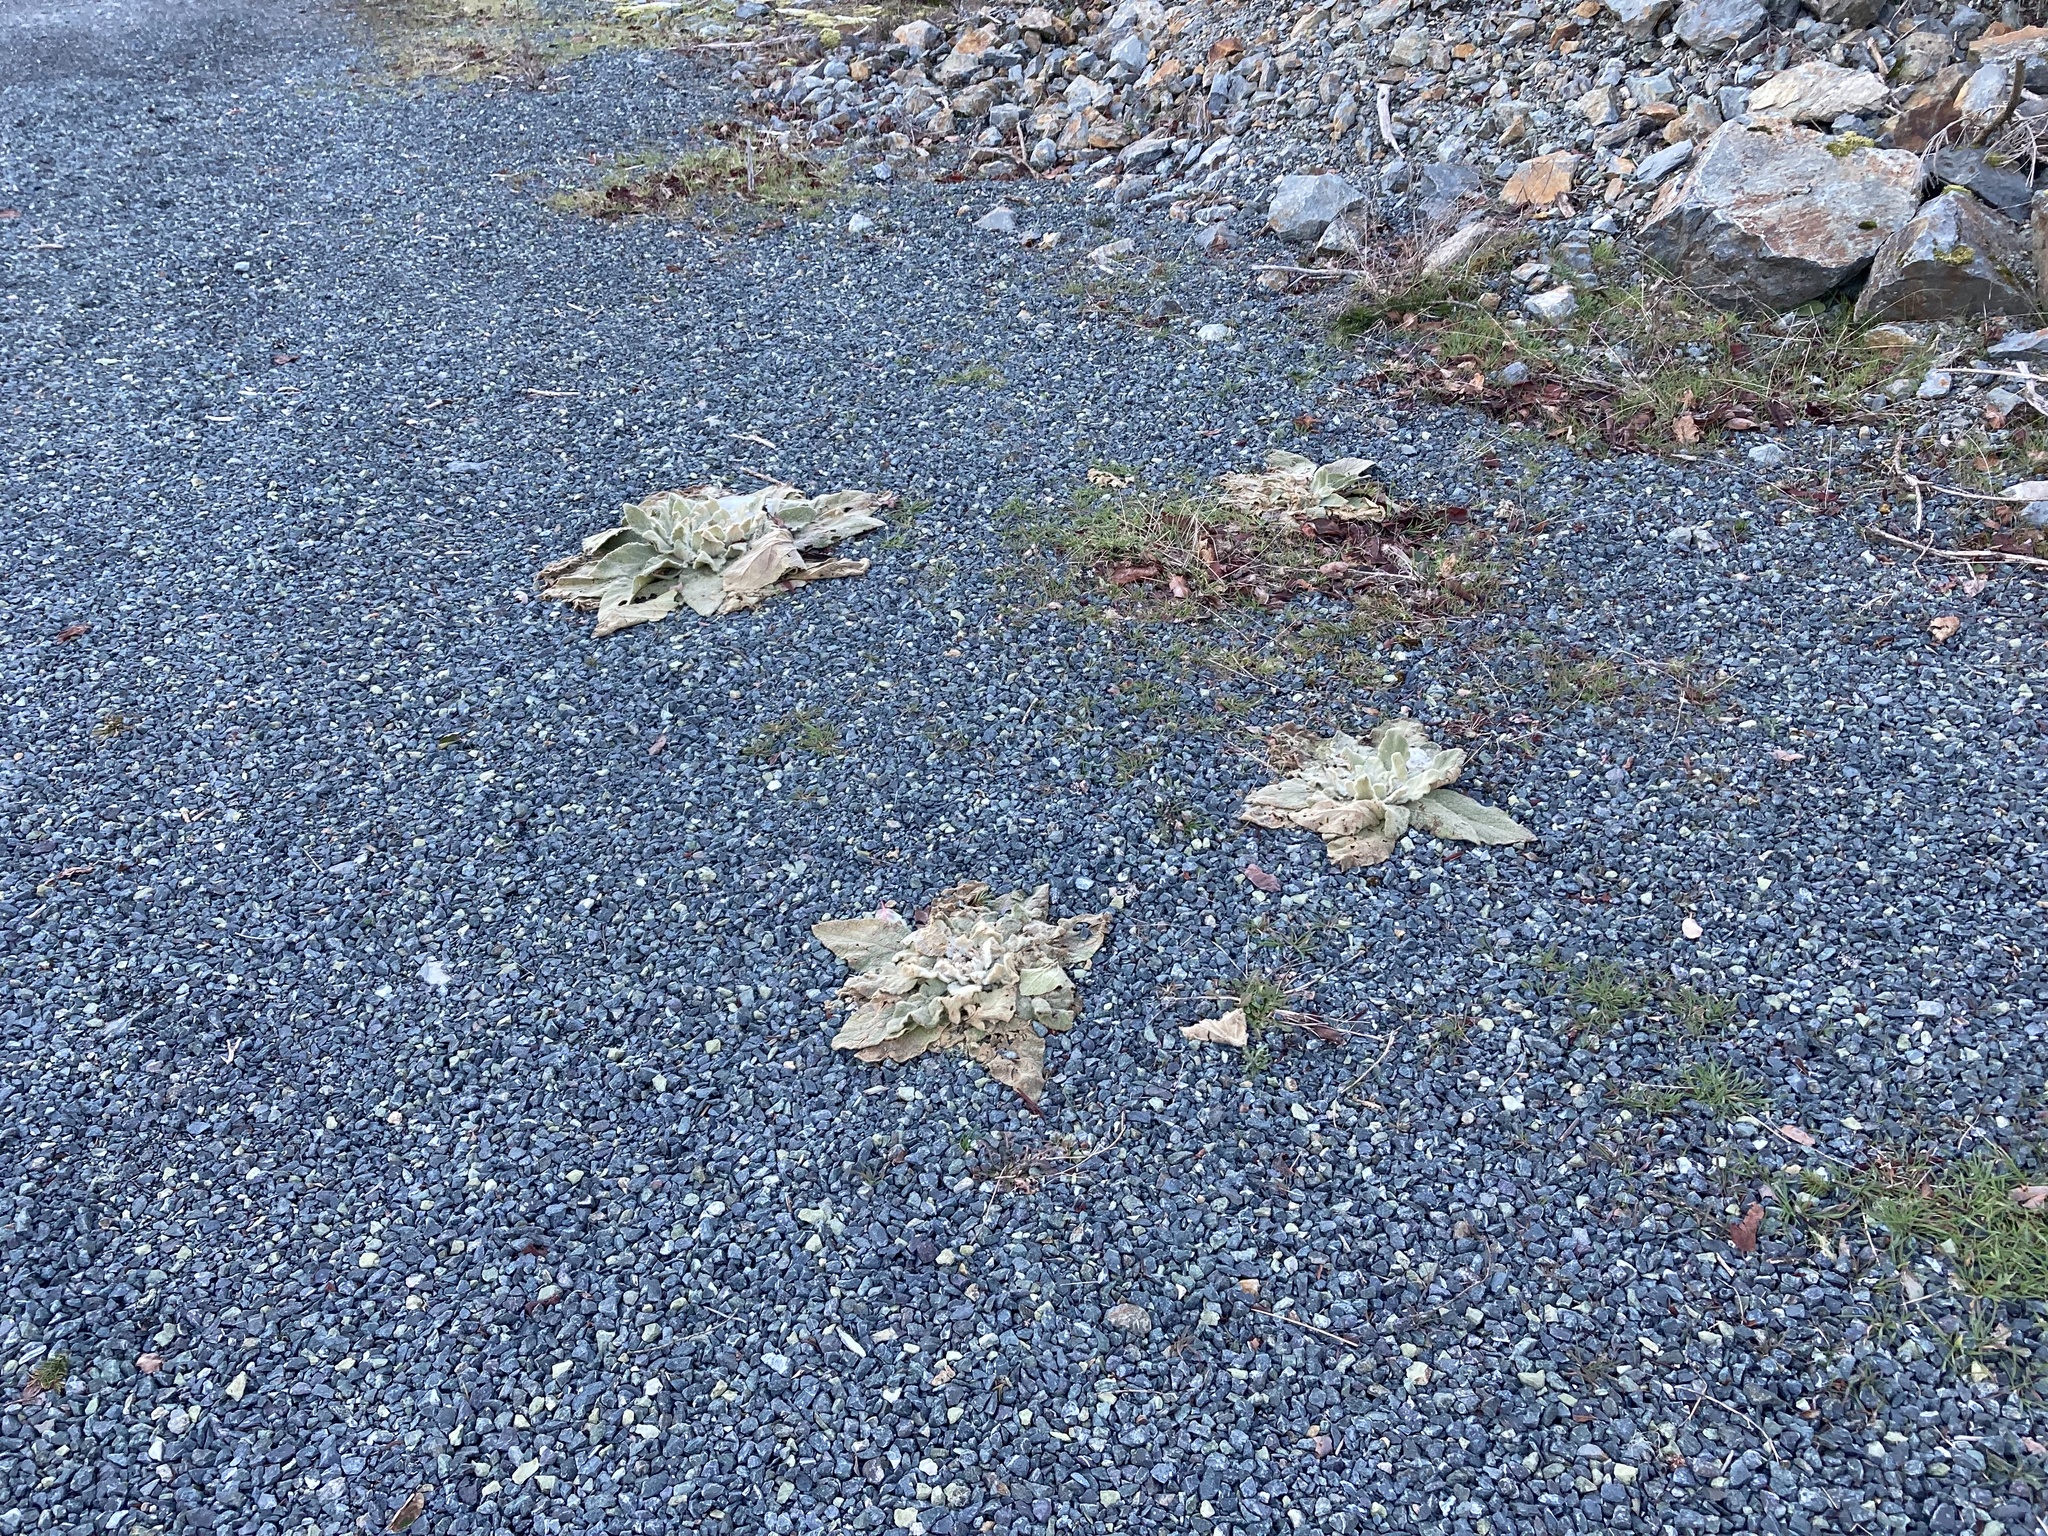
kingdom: Plantae
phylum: Tracheophyta
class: Magnoliopsida
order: Lamiales
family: Scrophulariaceae
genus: Verbascum
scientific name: Verbascum thapsus
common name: Common mullein
